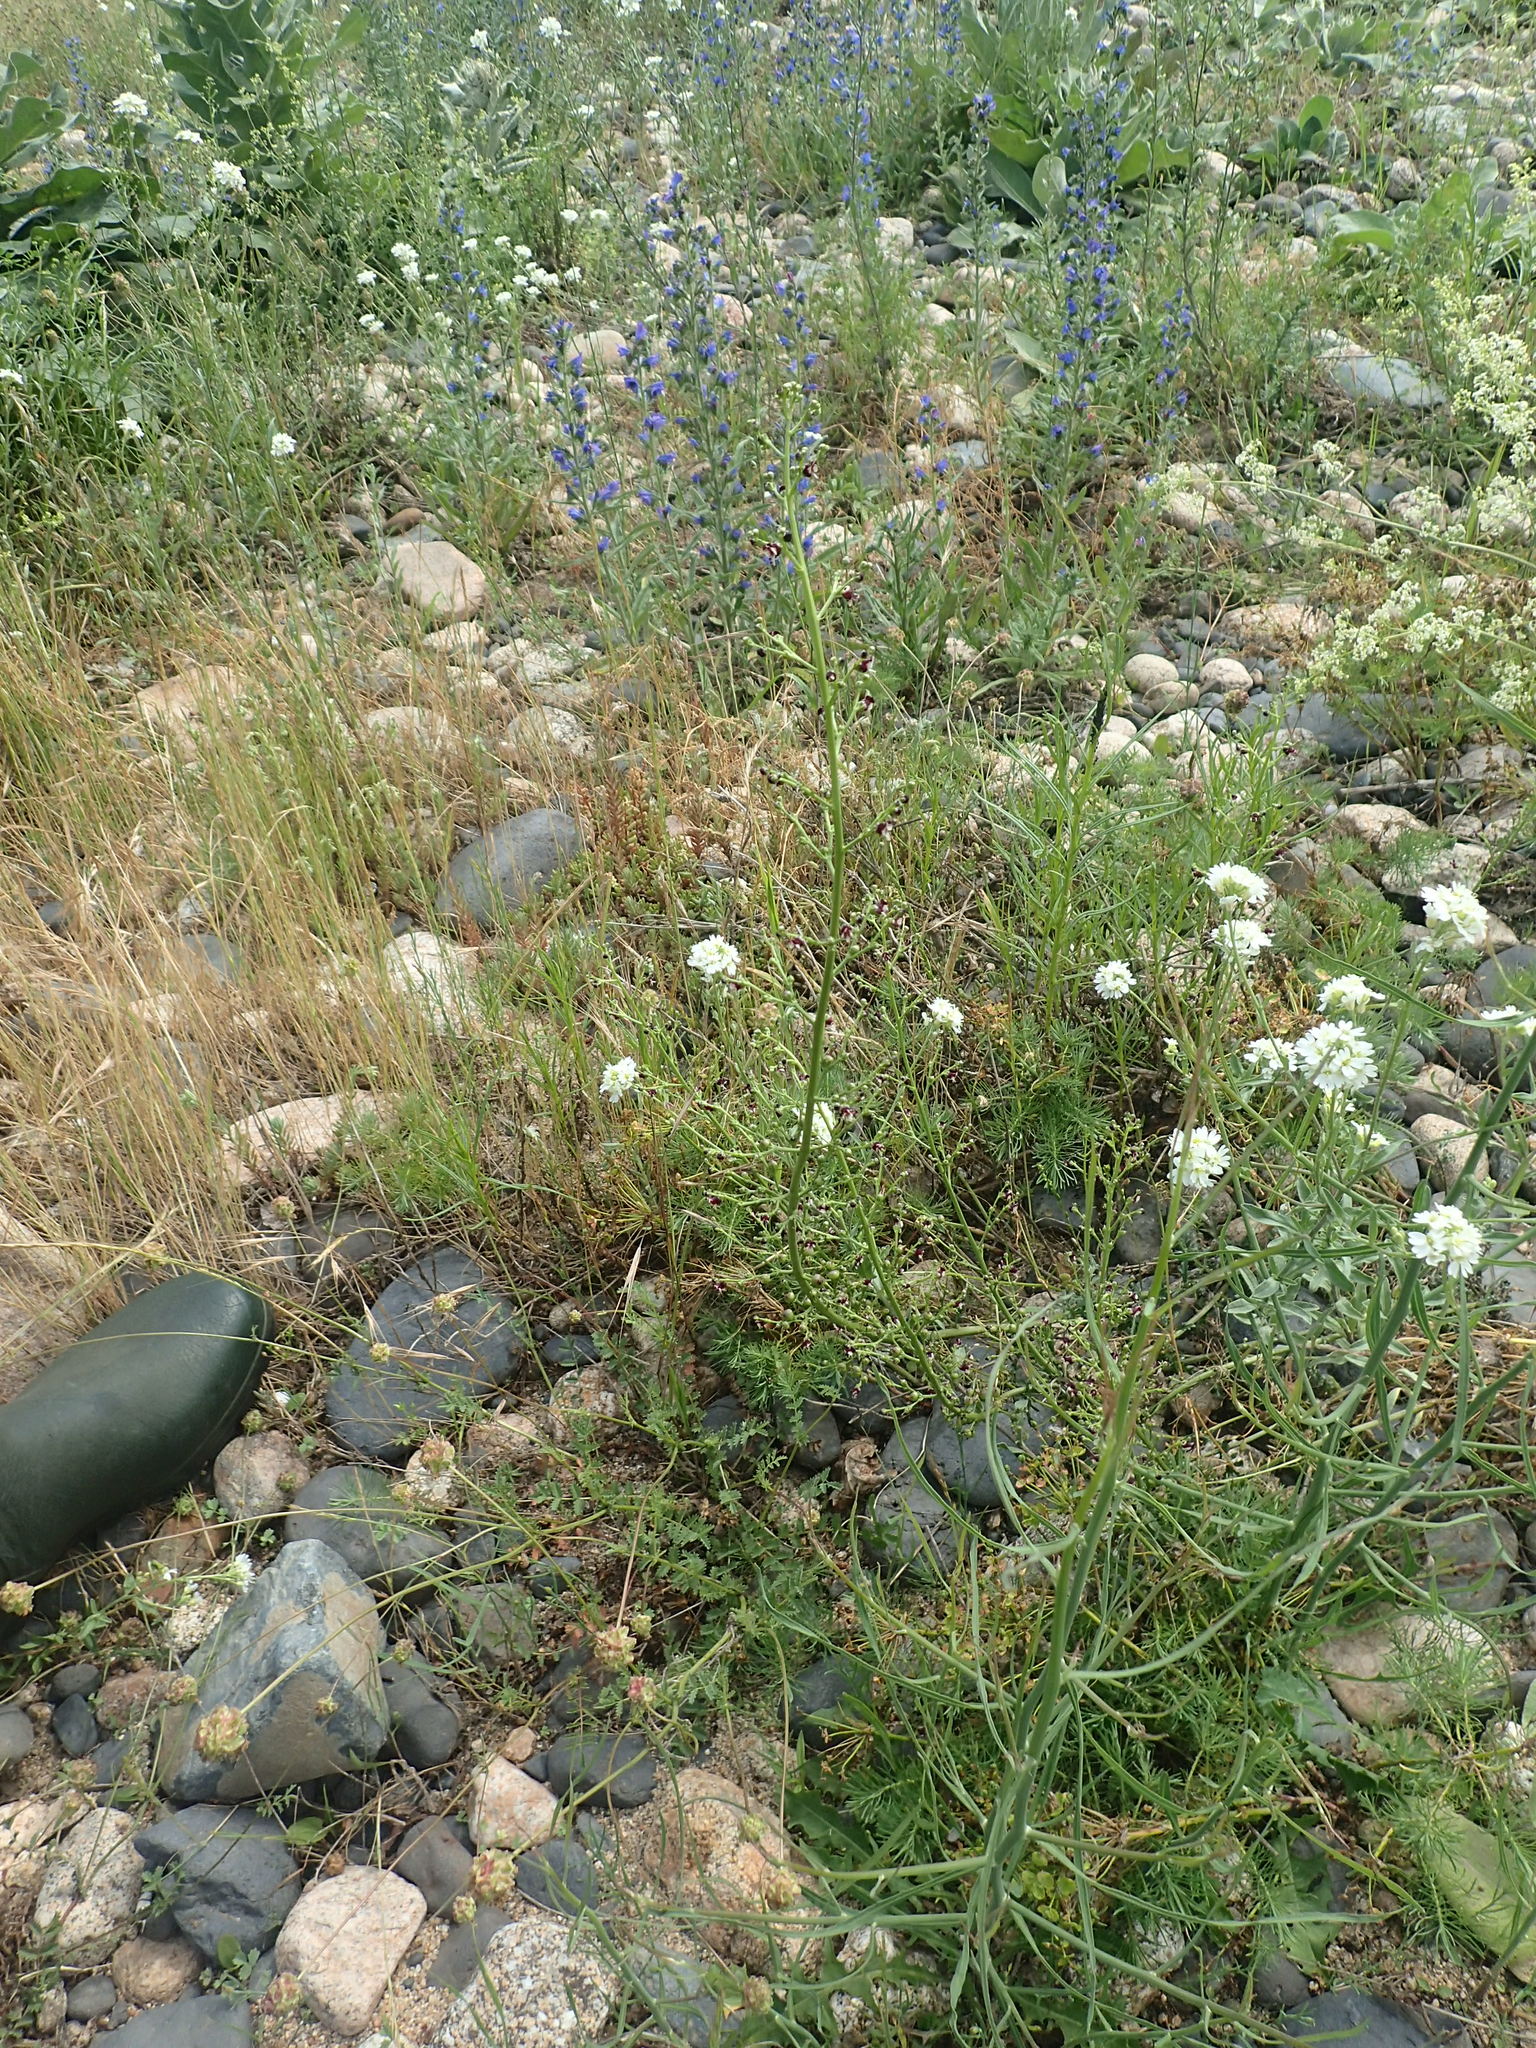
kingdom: Plantae
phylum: Tracheophyta
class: Magnoliopsida
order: Lamiales
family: Scrophulariaceae
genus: Scrophularia
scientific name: Scrophularia canina
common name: French figwort
